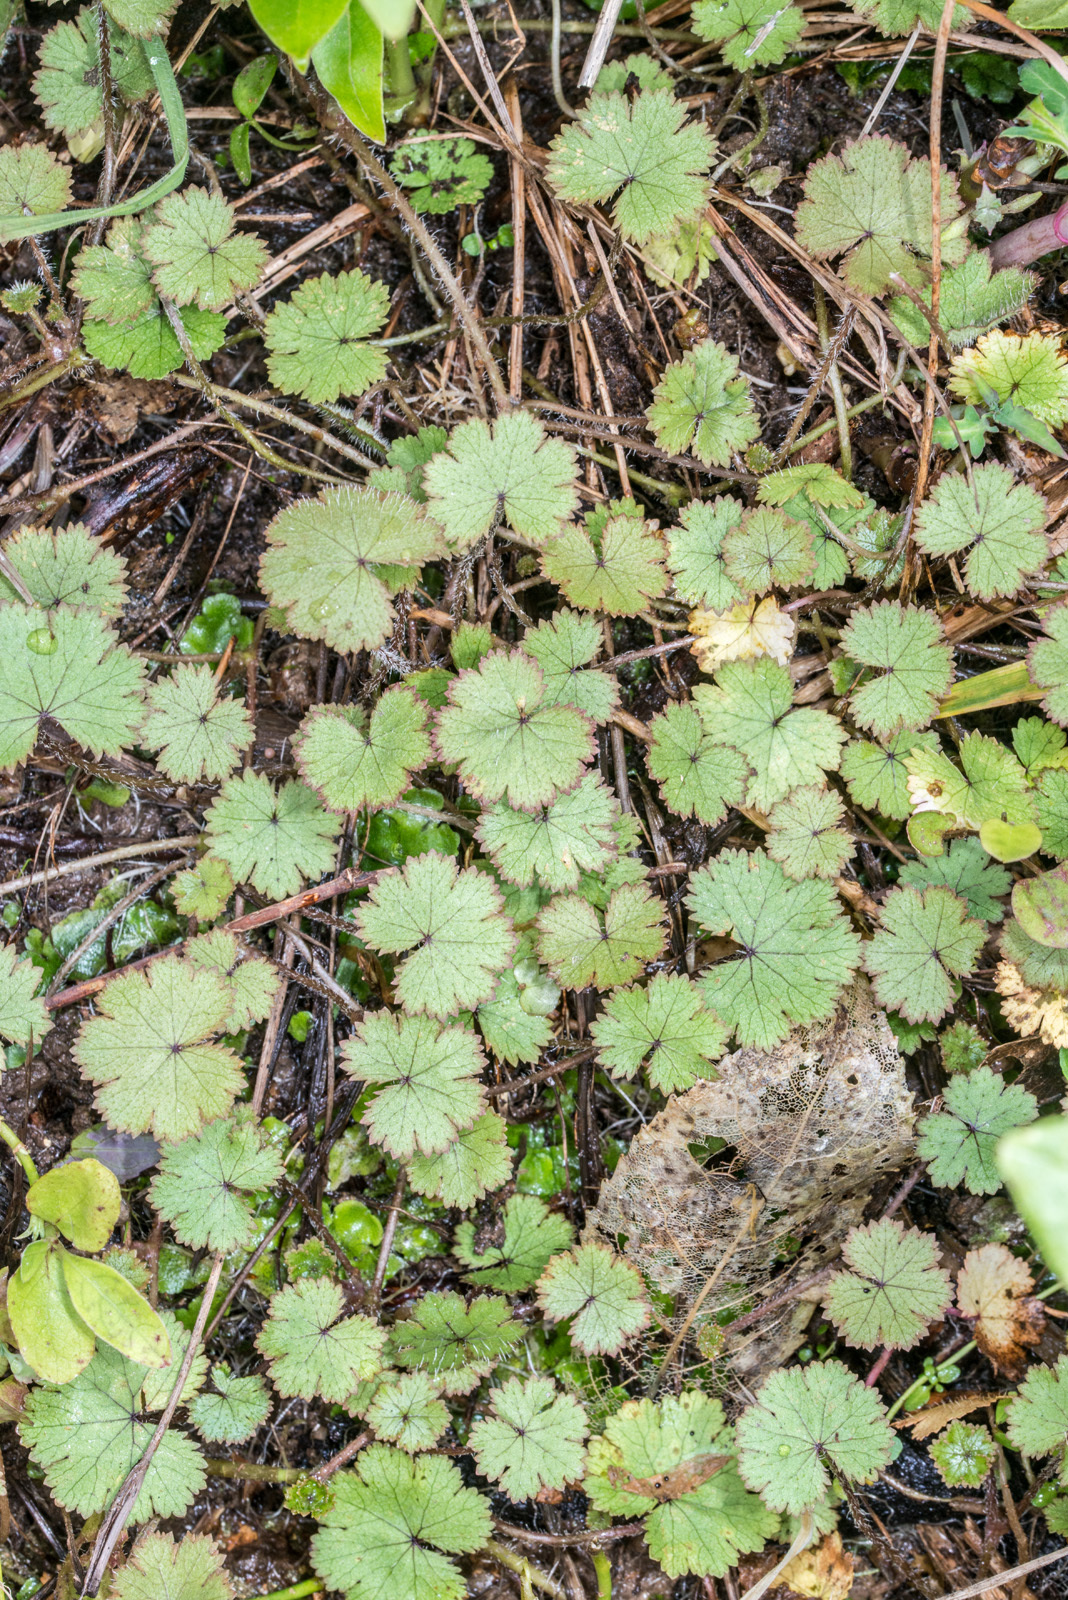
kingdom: Plantae
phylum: Tracheophyta
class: Magnoliopsida
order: Apiales
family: Araliaceae
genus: Hydrocotyle
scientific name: Hydrocotyle moschata
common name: Hairy pennywort
